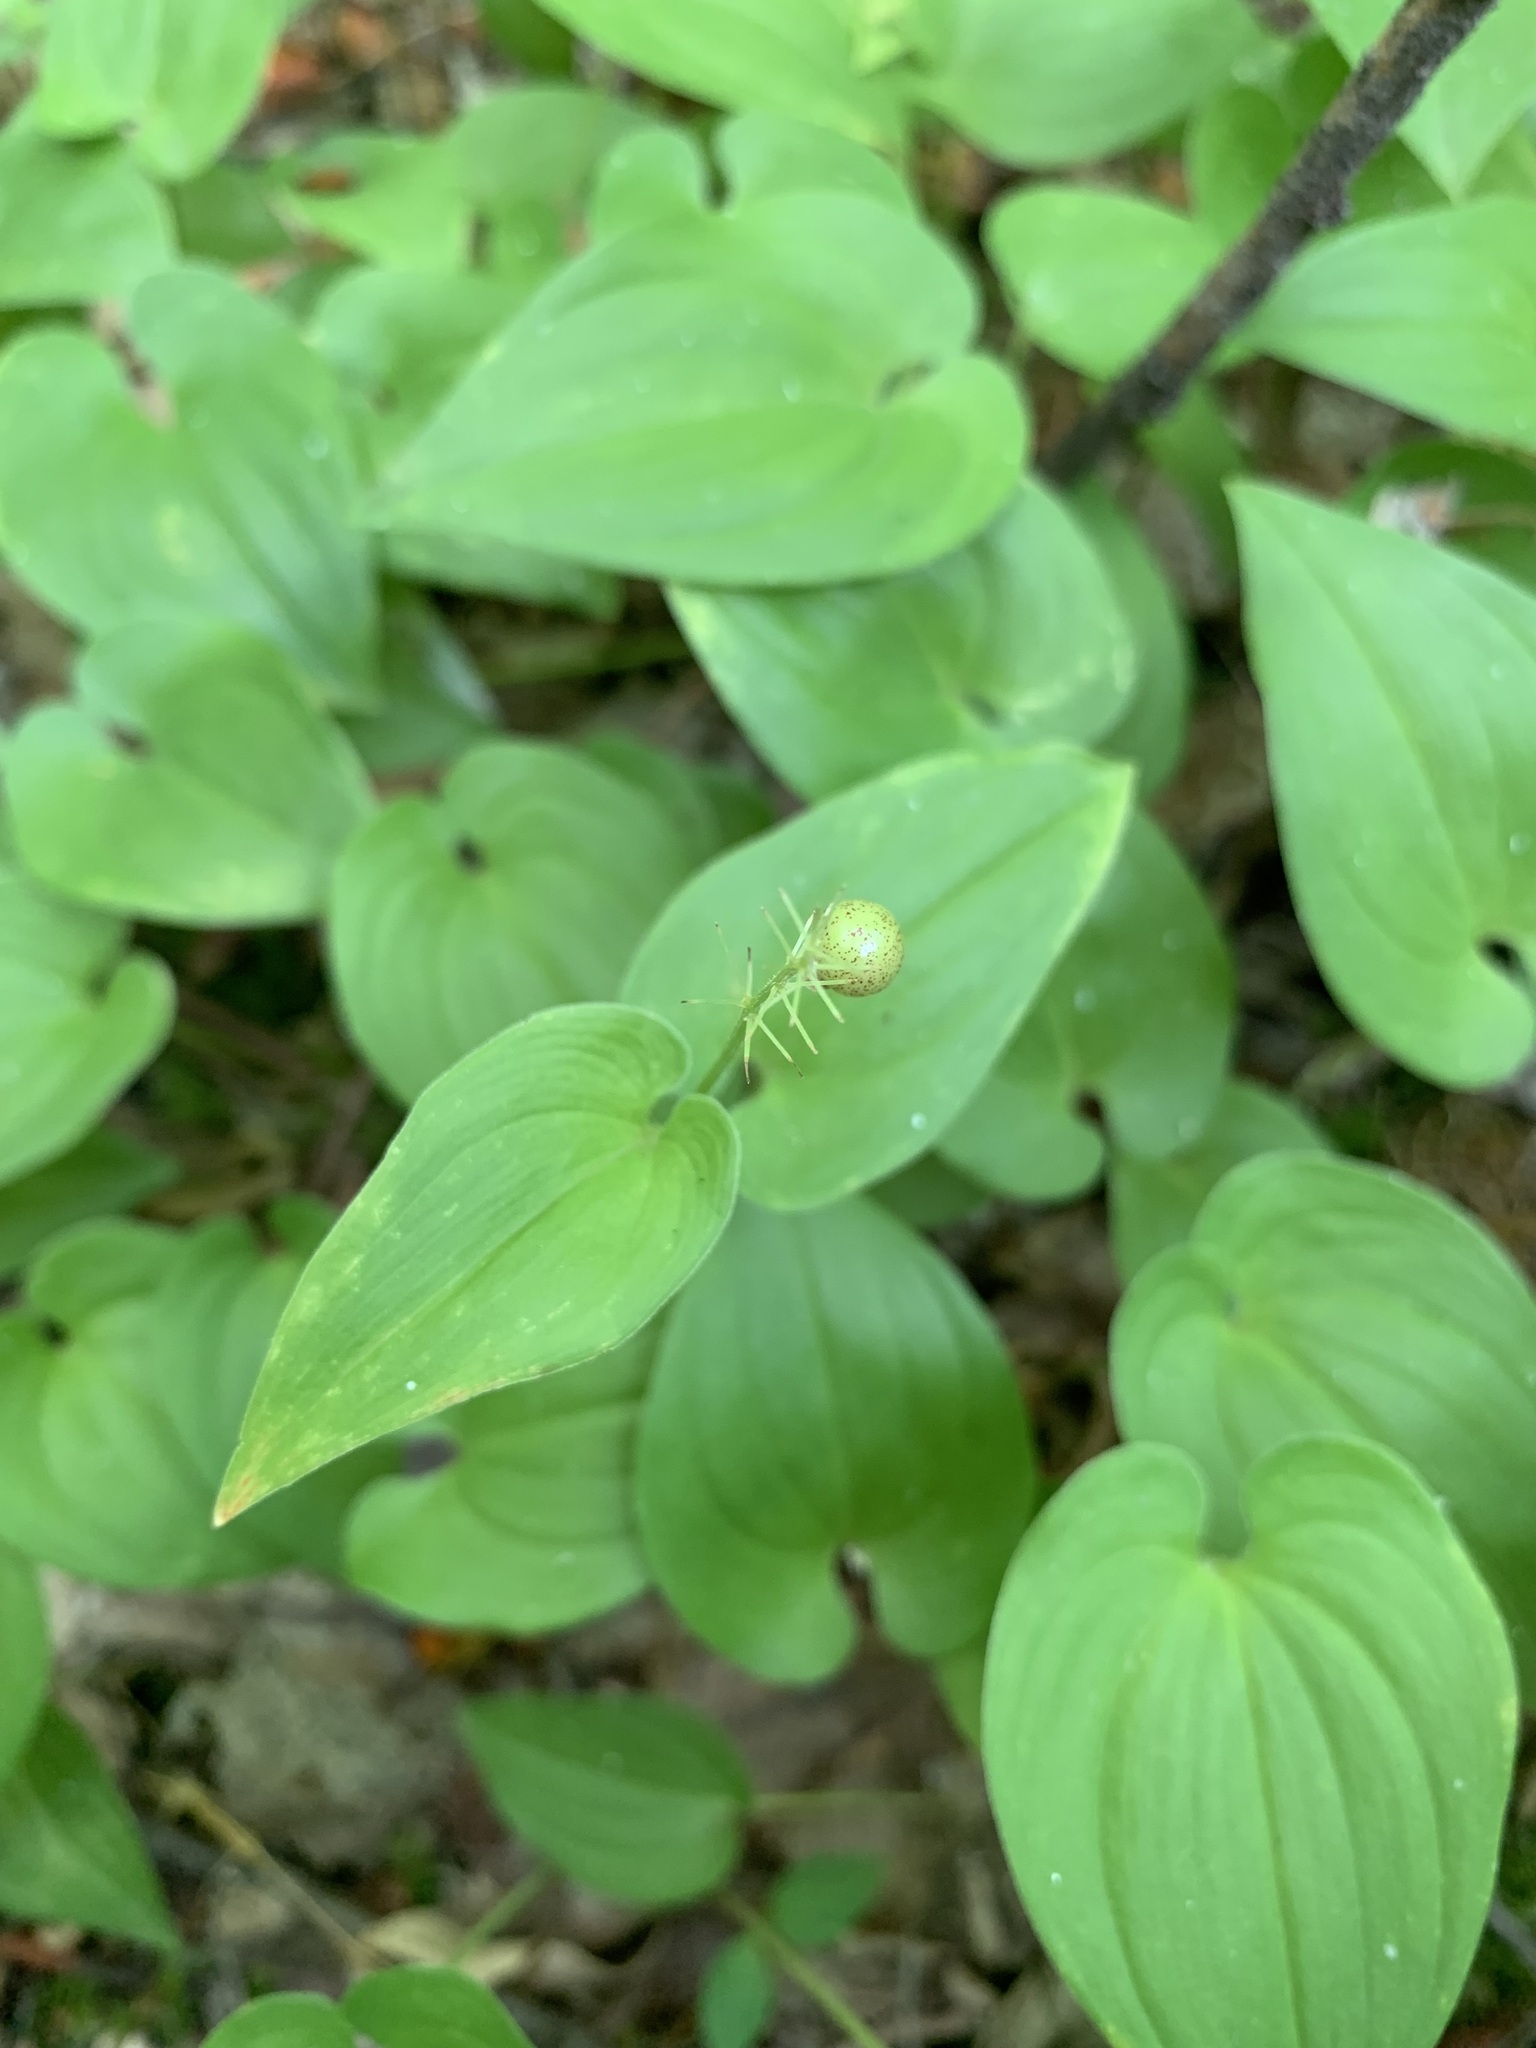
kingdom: Plantae
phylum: Tracheophyta
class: Liliopsida
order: Asparagales
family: Asparagaceae
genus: Maianthemum
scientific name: Maianthemum bifolium
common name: May lily
